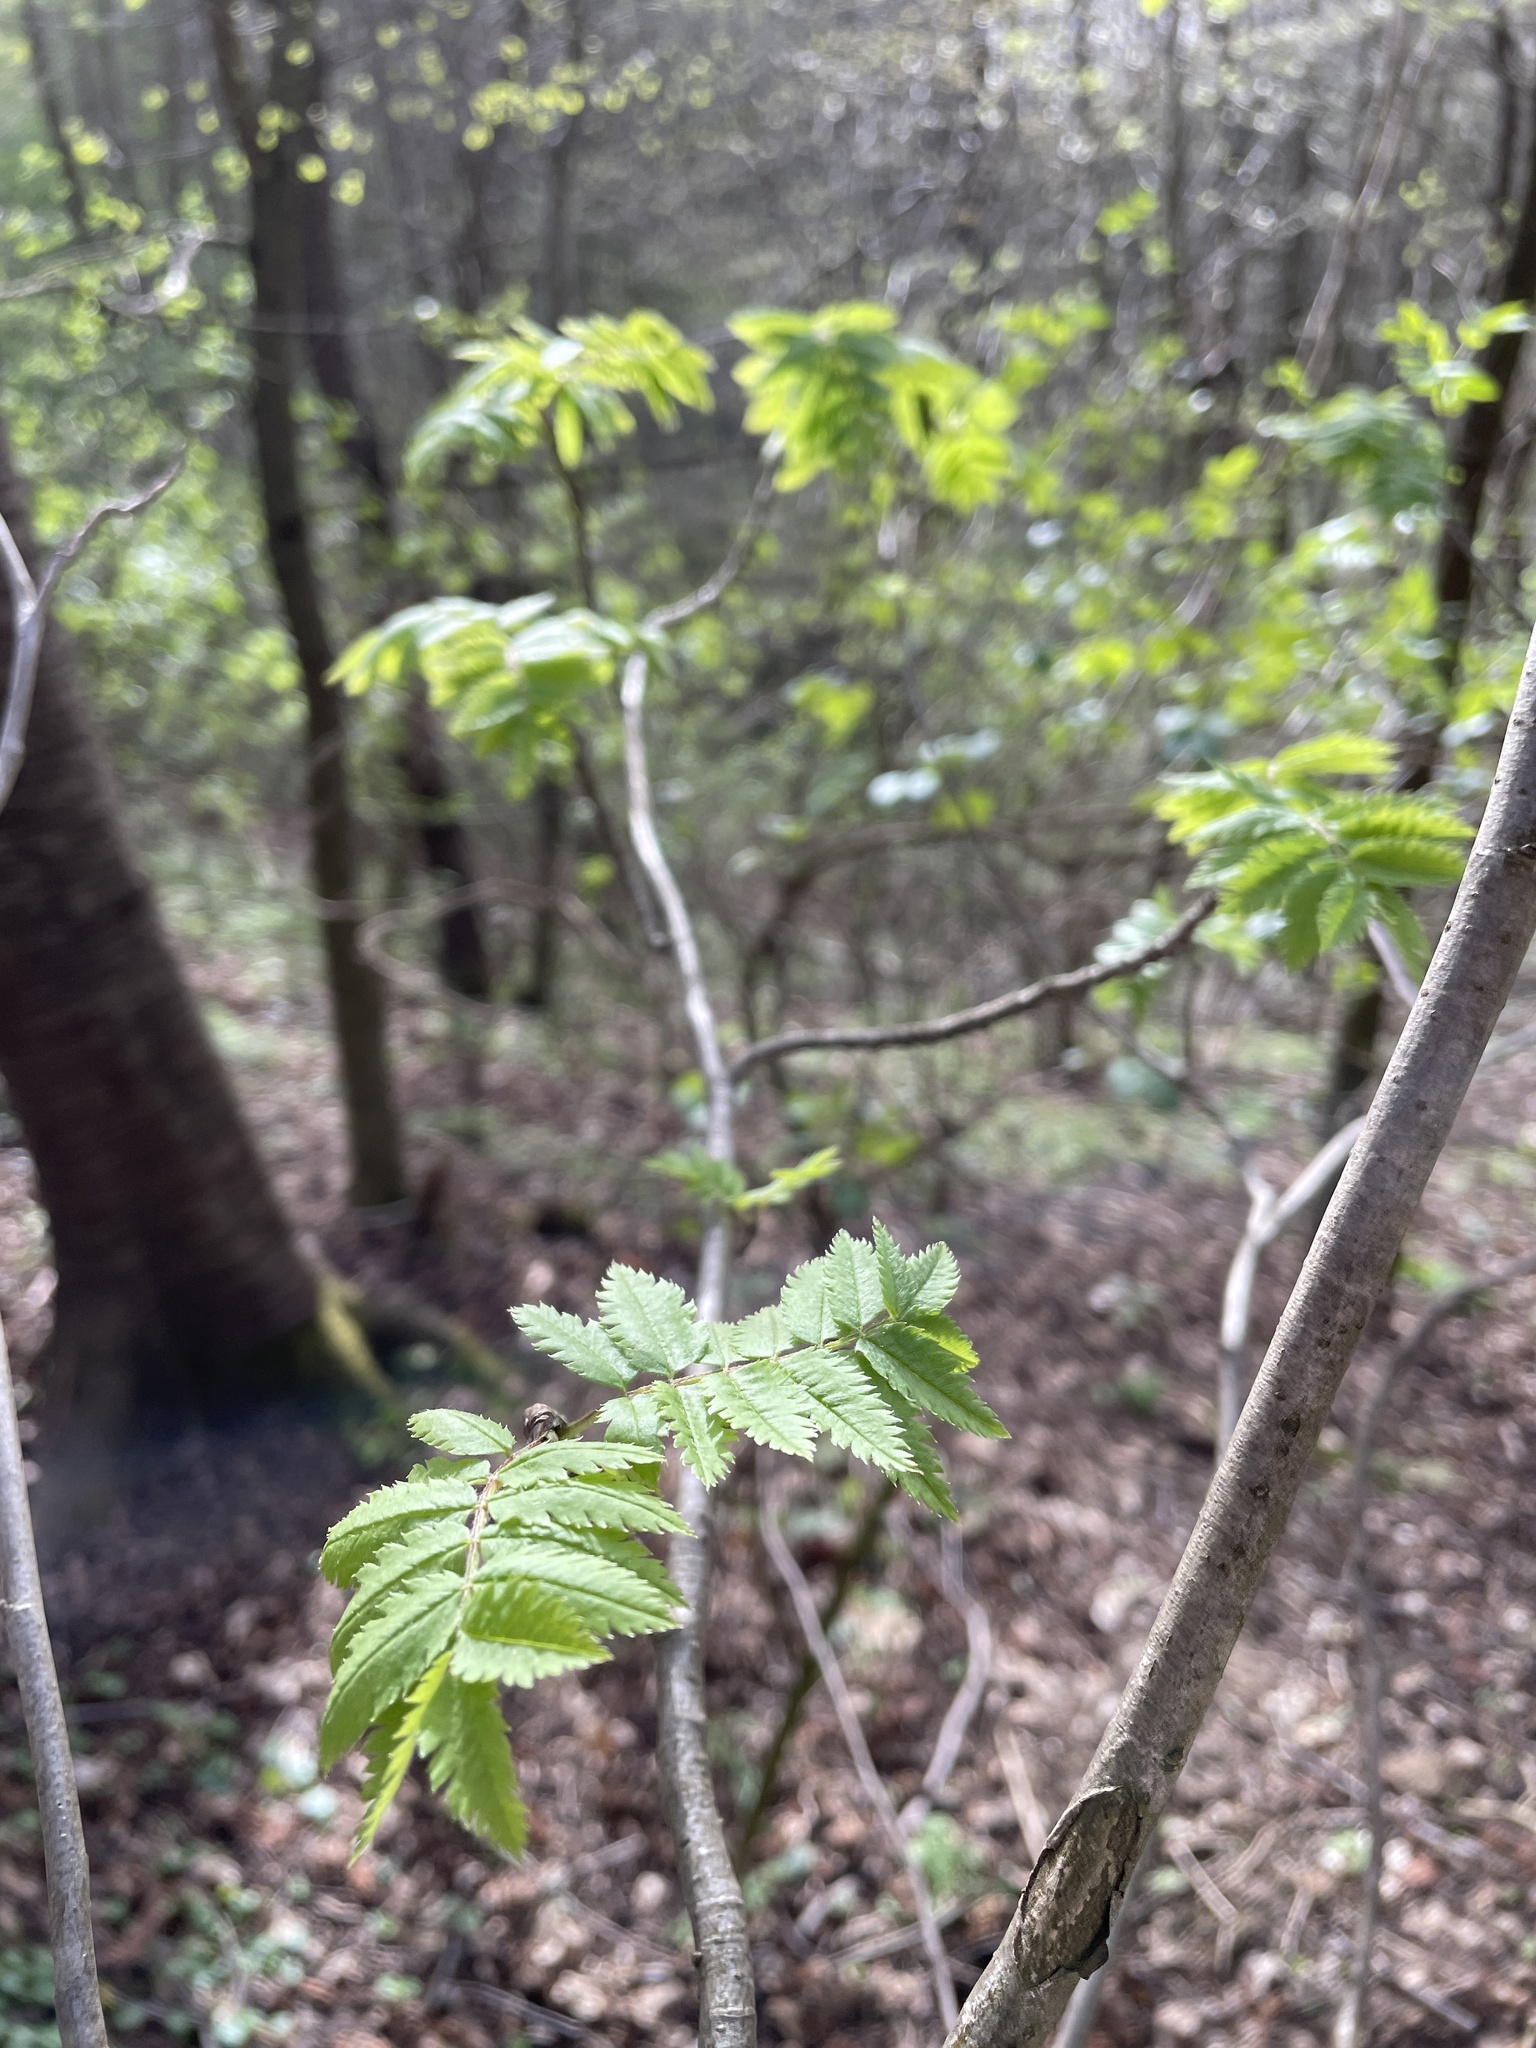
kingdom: Plantae
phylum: Tracheophyta
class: Magnoliopsida
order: Rosales
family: Rosaceae
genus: Sorbus
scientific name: Sorbus aucuparia
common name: Rowan
